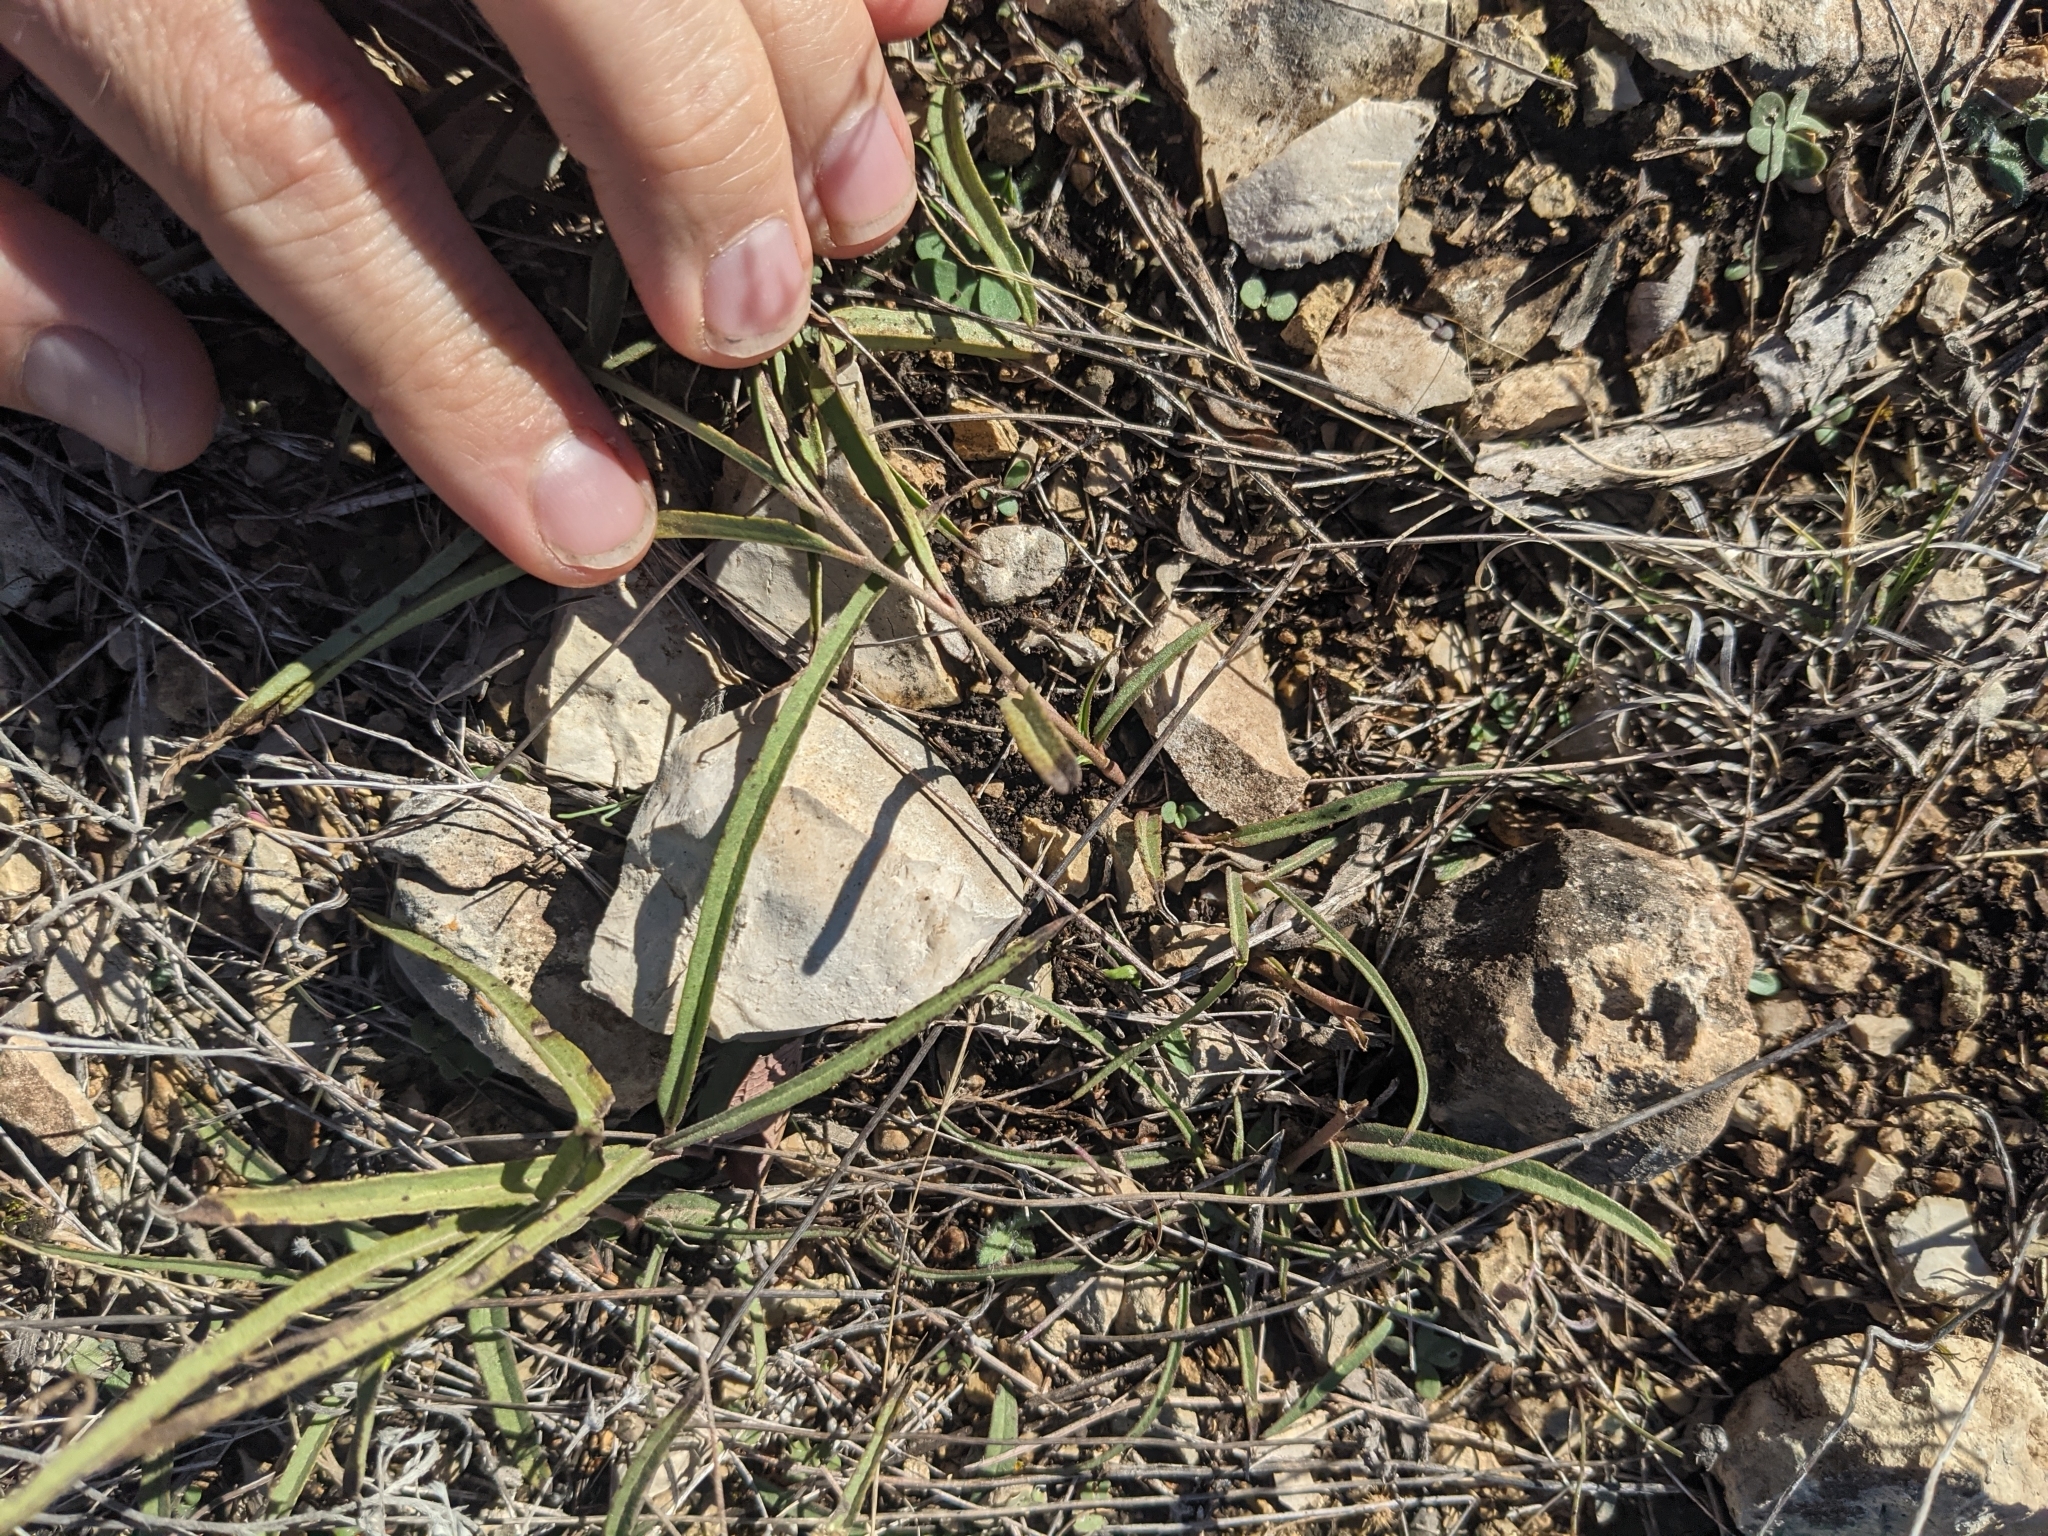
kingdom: Plantae
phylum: Tracheophyta
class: Magnoliopsida
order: Piperales
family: Aristolochiaceae
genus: Aristolochia
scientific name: Aristolochia erecta
